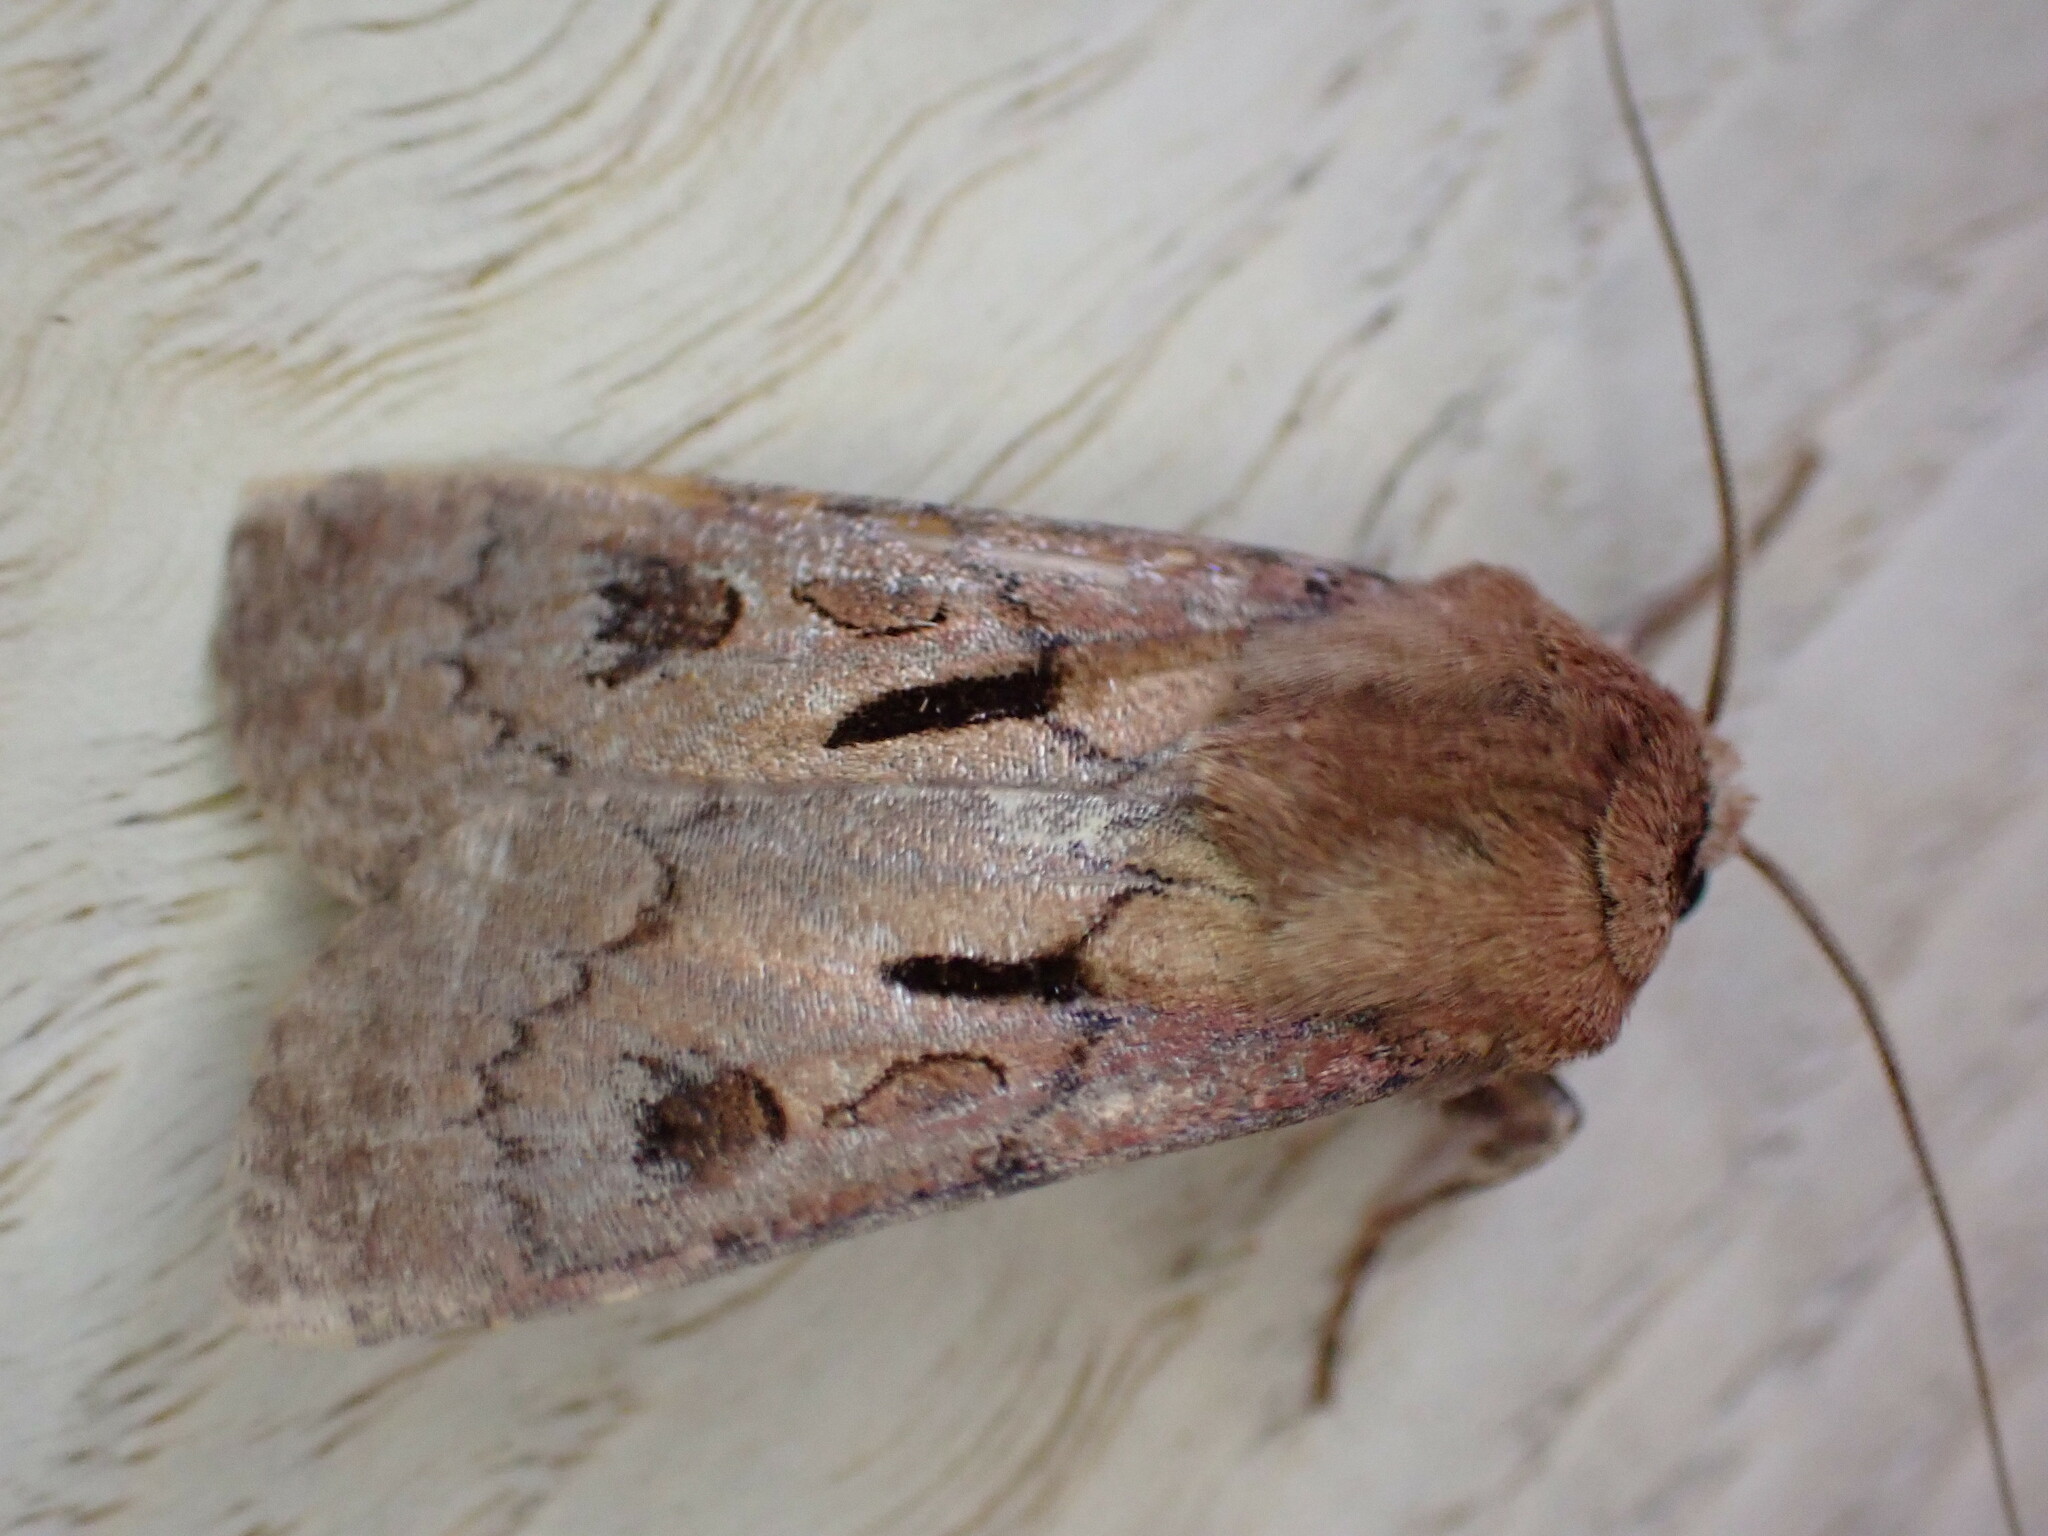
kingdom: Animalia
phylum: Arthropoda
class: Insecta
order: Lepidoptera
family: Noctuidae
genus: Agrotis
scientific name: Agrotis exclamationis
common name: Heart and dart
